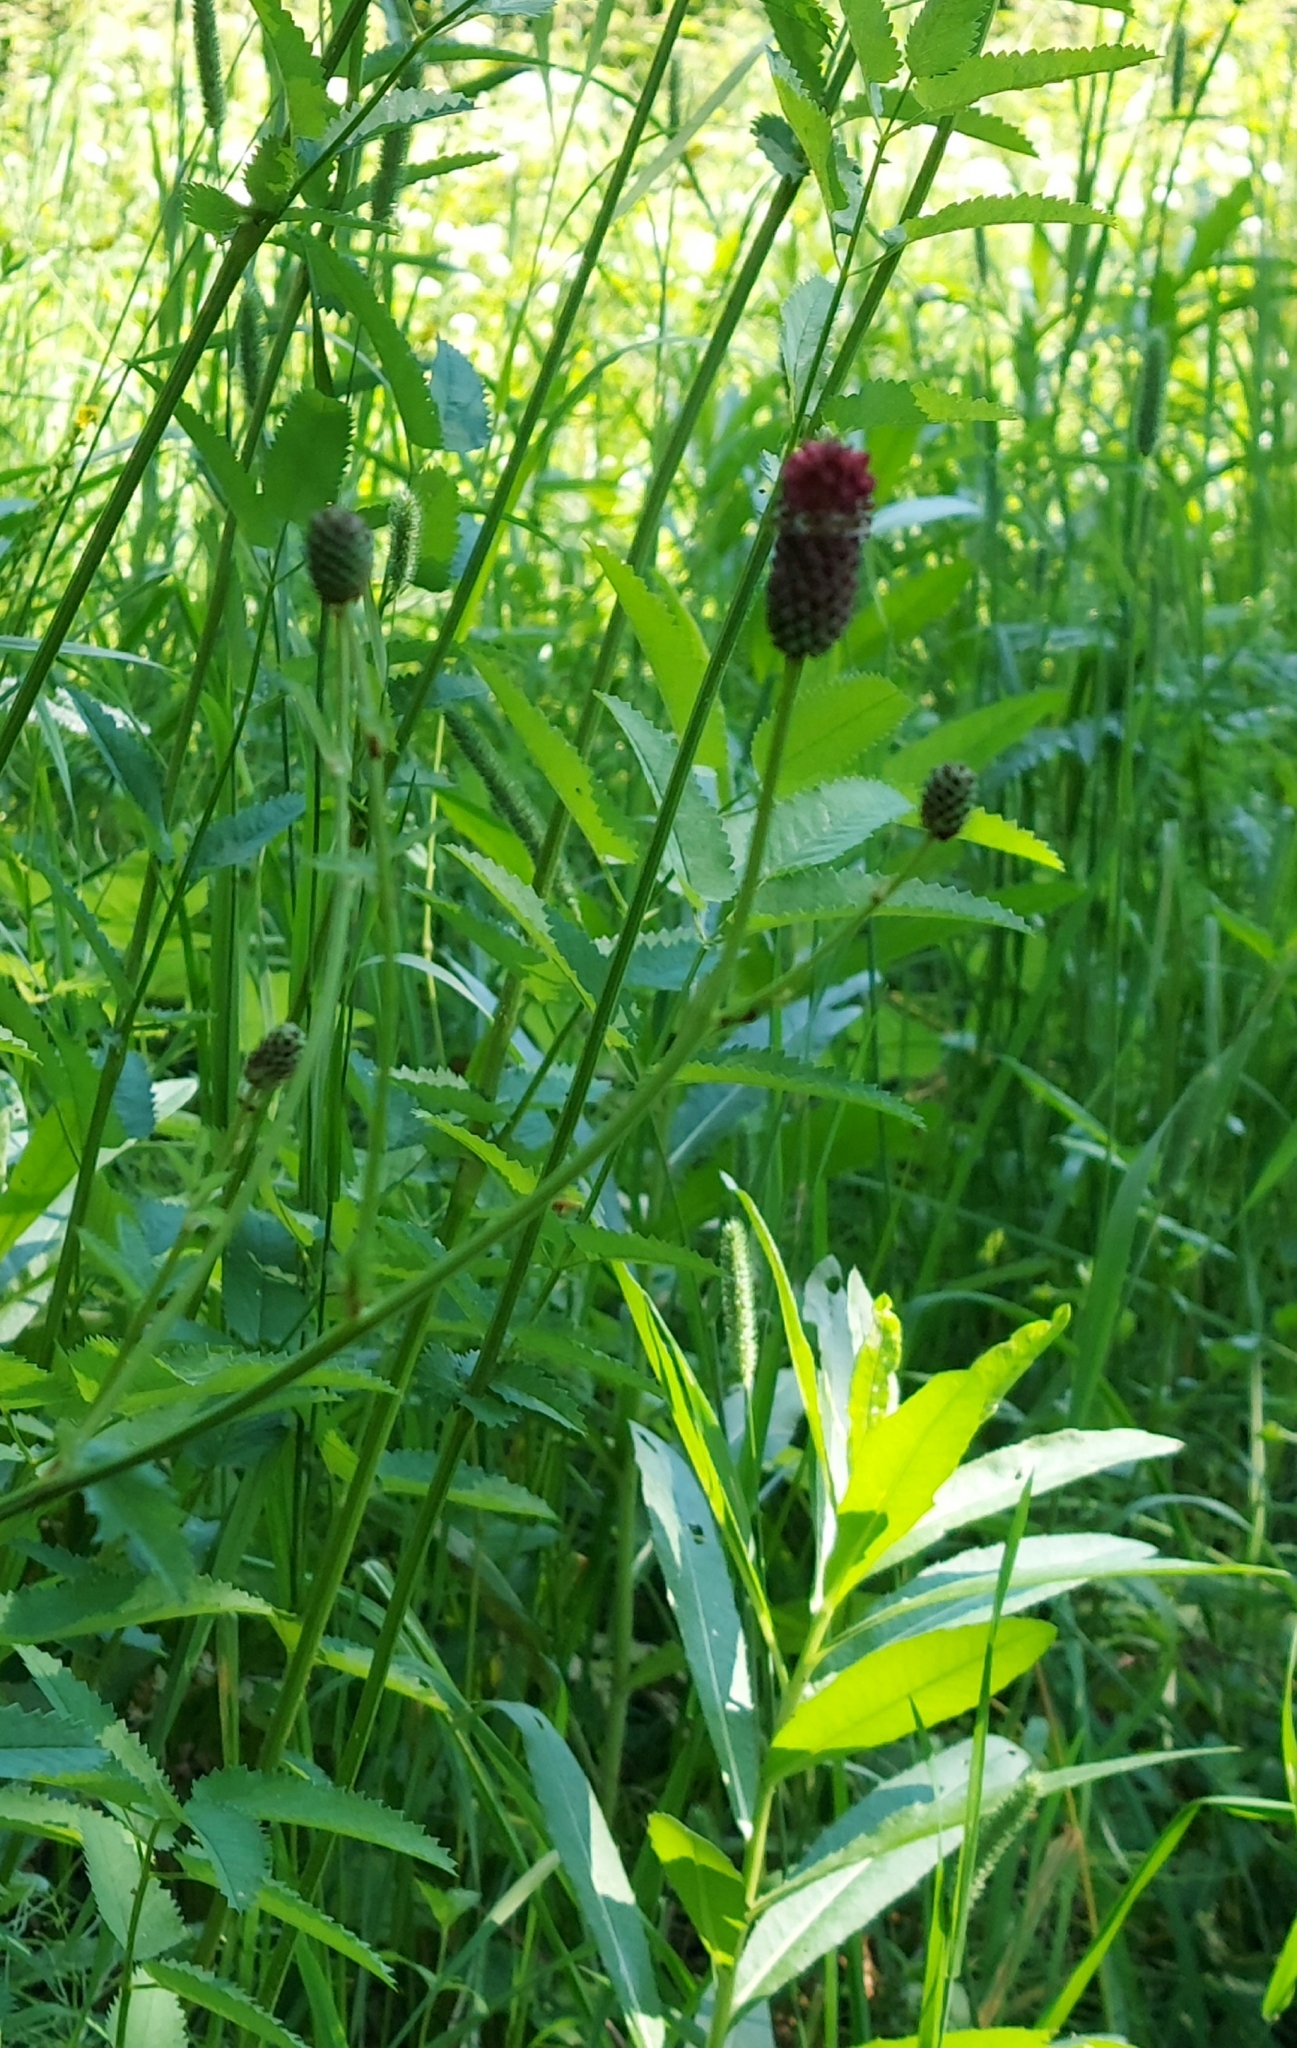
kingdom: Plantae
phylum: Tracheophyta
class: Magnoliopsida
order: Rosales
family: Rosaceae
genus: Sanguisorba
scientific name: Sanguisorba officinalis
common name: Great burnet
